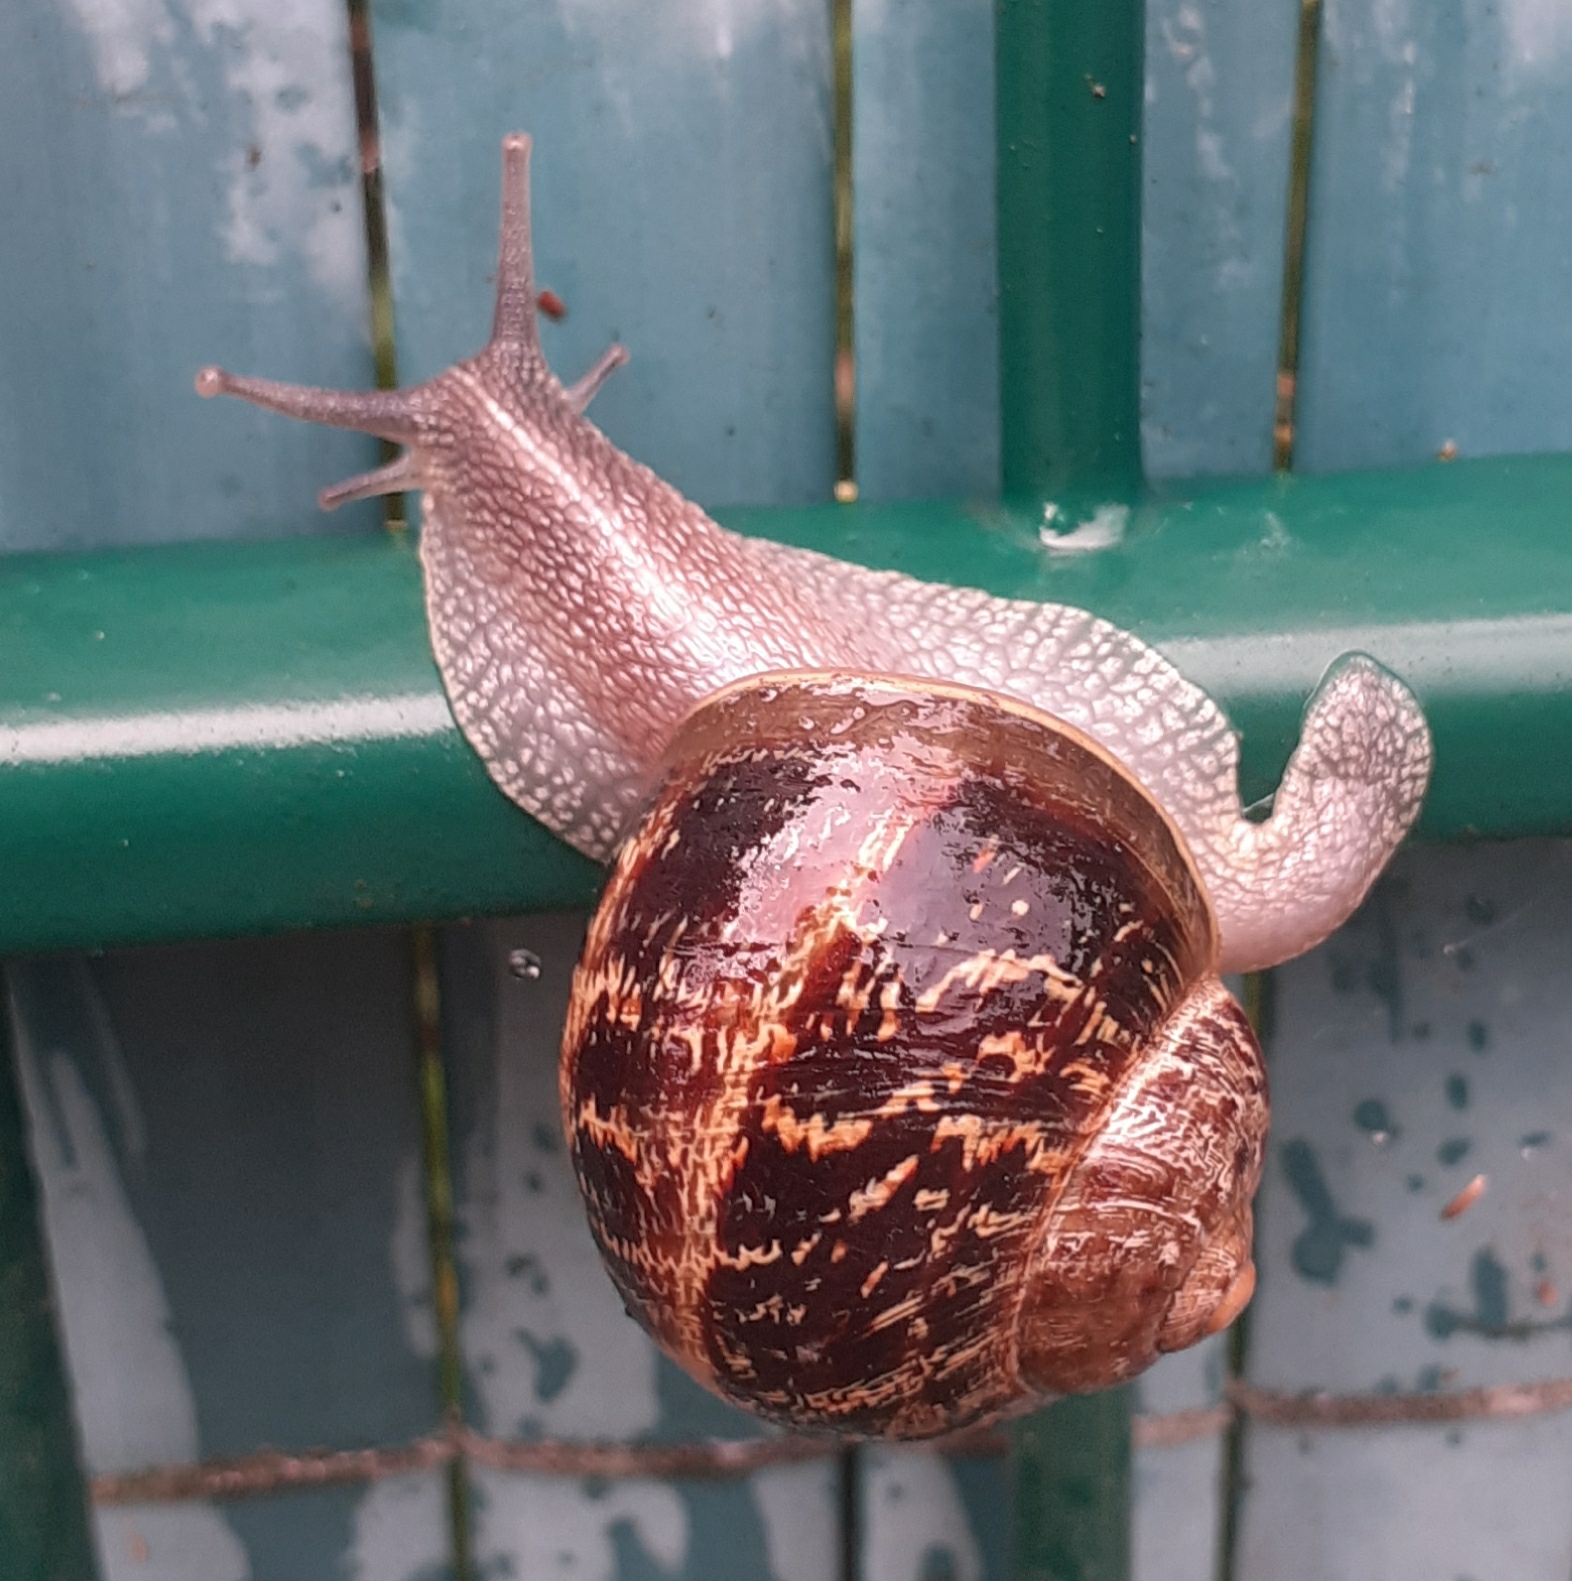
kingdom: Animalia
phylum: Mollusca
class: Gastropoda
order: Stylommatophora
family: Helicidae
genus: Cornu
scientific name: Cornu aspersum
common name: Brown garden snail
